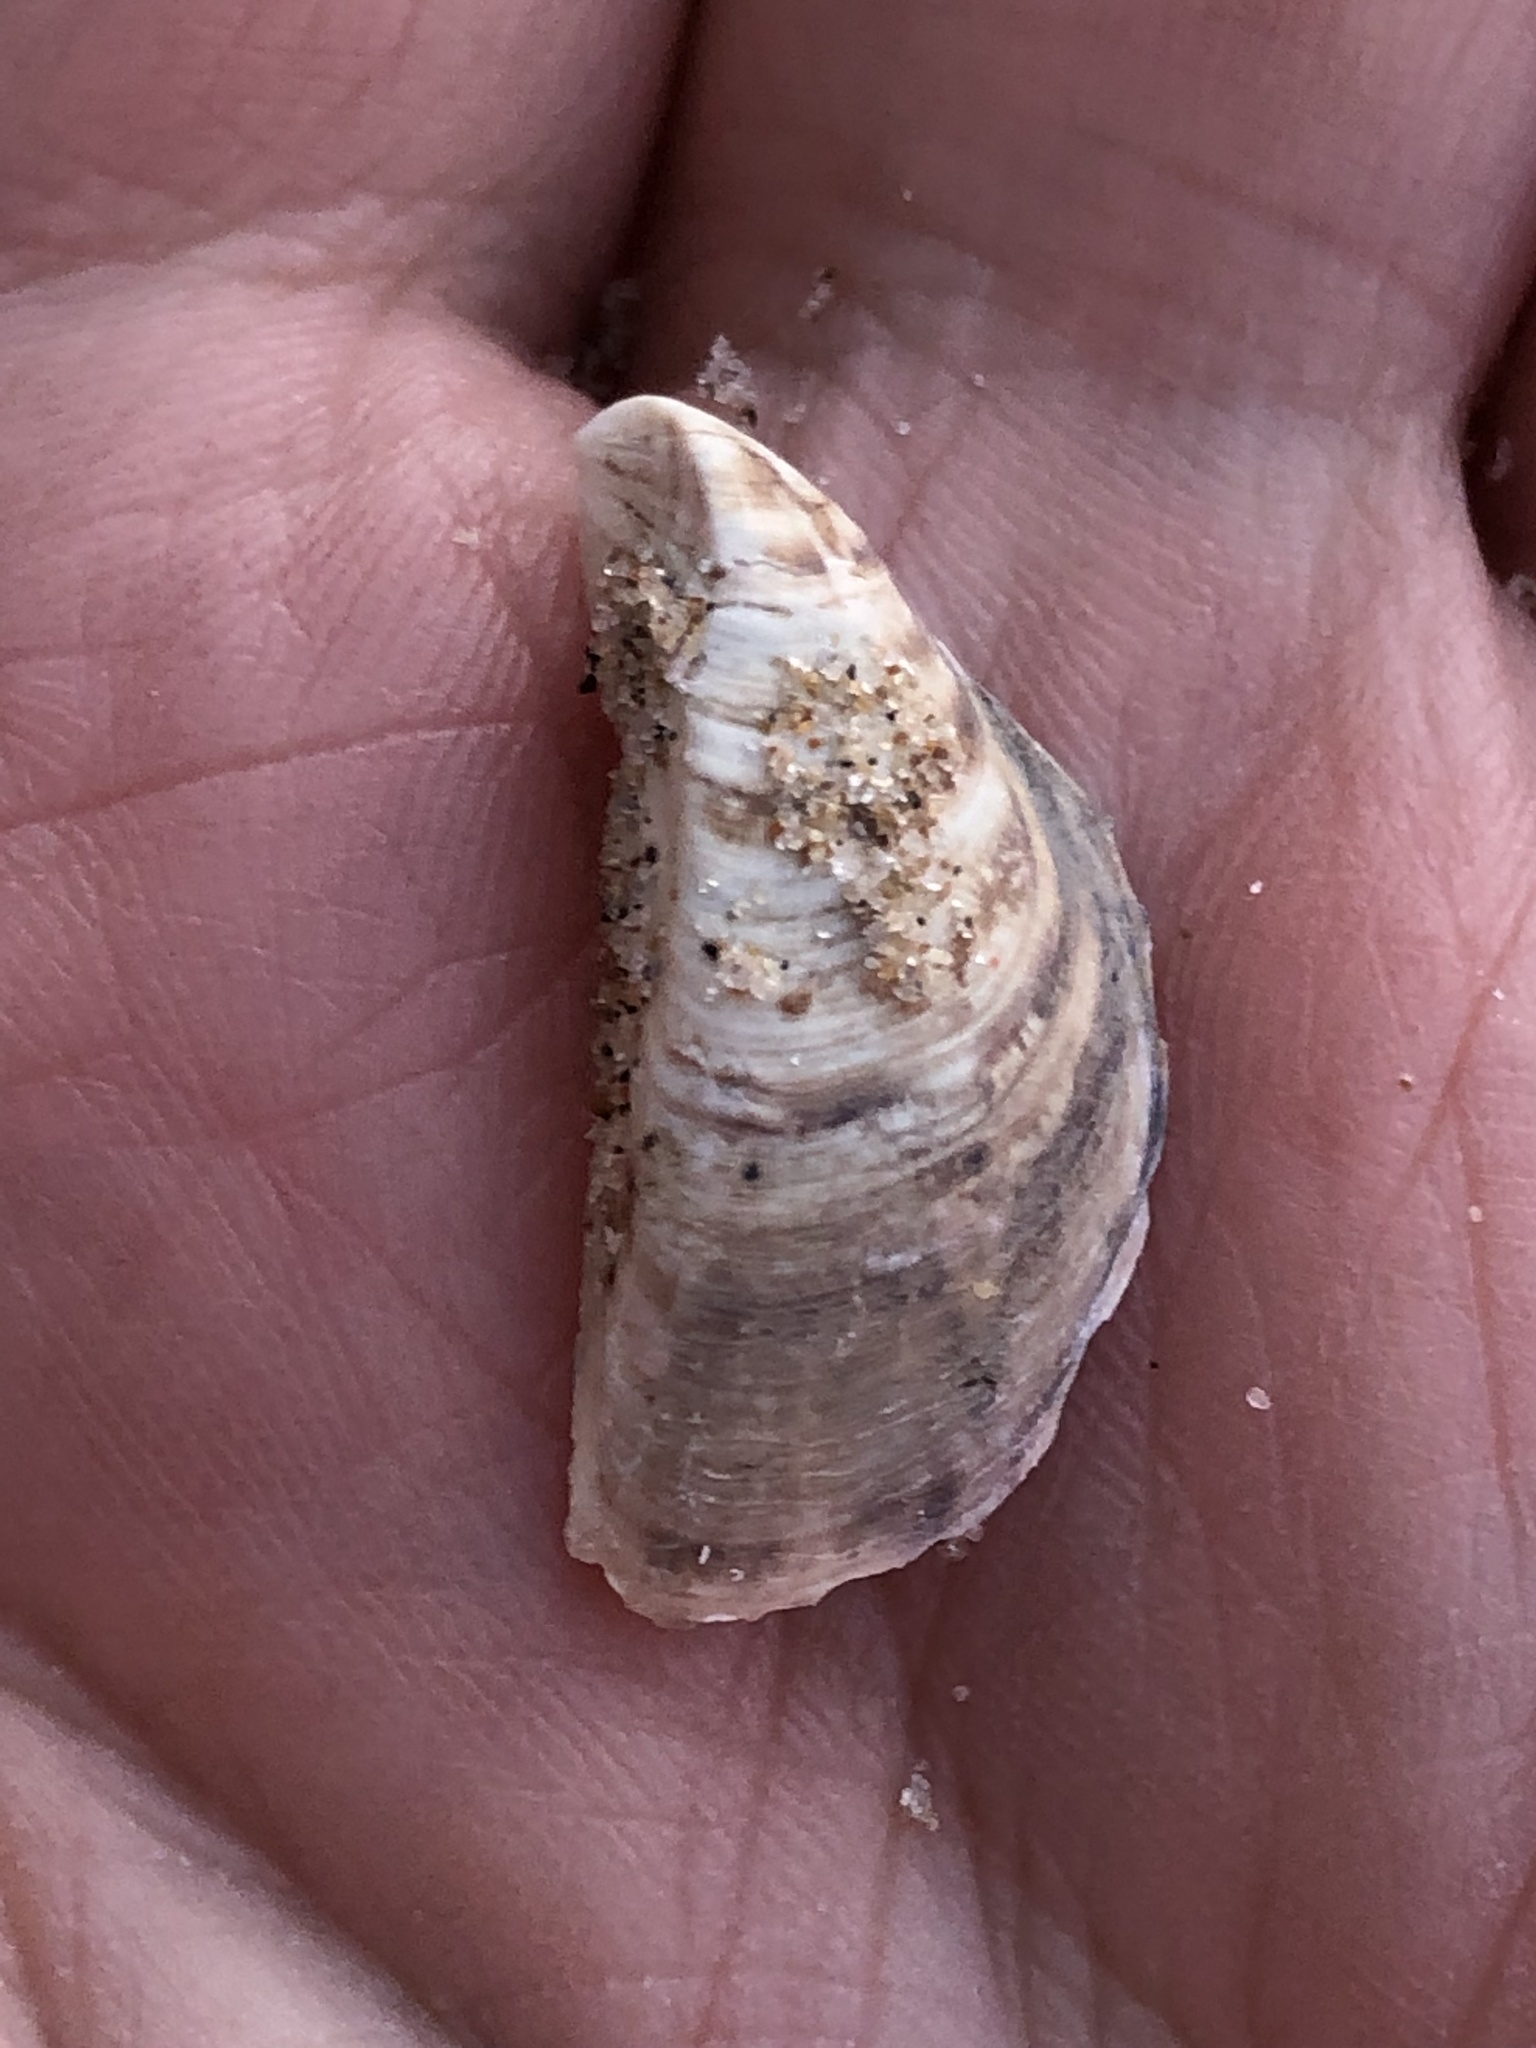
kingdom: Animalia
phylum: Mollusca
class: Bivalvia
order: Myida
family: Dreissenidae
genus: Dreissena
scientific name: Dreissena polymorpha
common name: Zebra mussel
